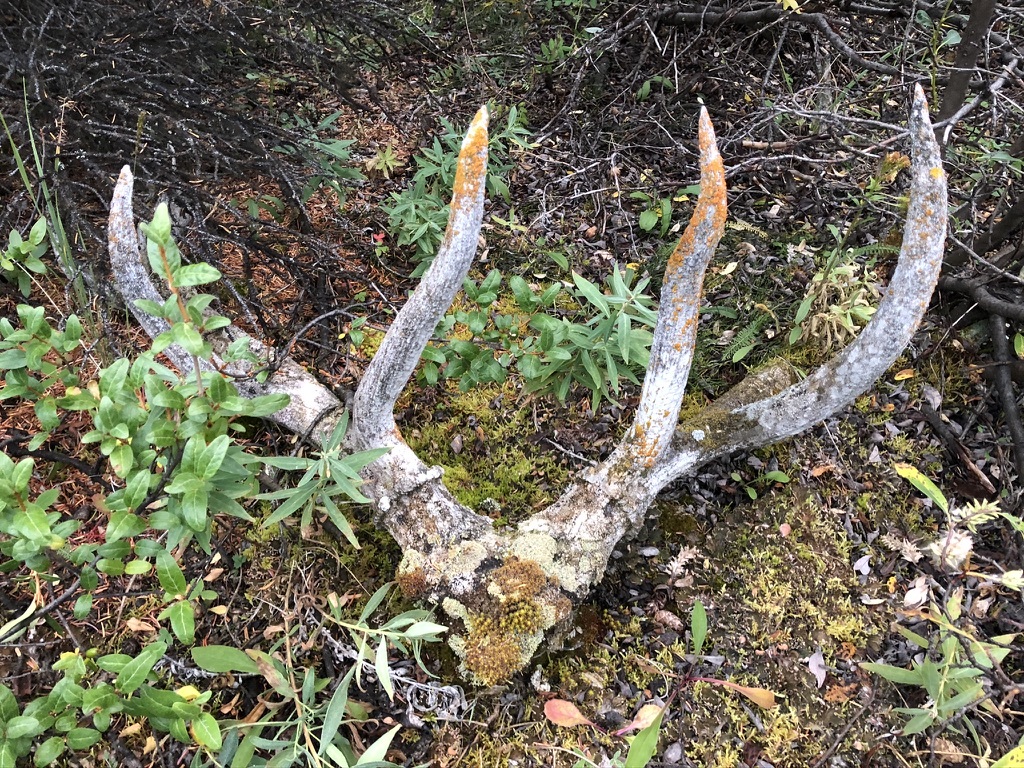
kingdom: Animalia
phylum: Chordata
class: Mammalia
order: Artiodactyla
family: Cervidae
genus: Cervus
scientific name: Cervus elaphus
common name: Red deer
